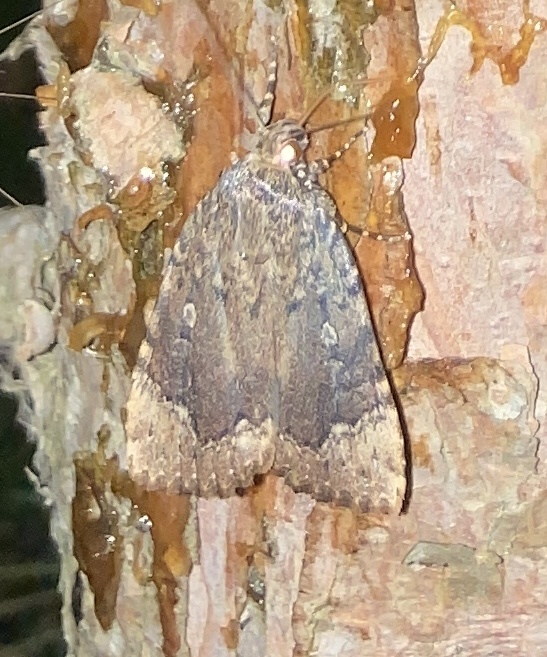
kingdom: Animalia
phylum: Arthropoda
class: Insecta
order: Lepidoptera
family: Noctuidae
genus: Amphipyra
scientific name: Amphipyra pyramidoides
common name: American copper underwing
